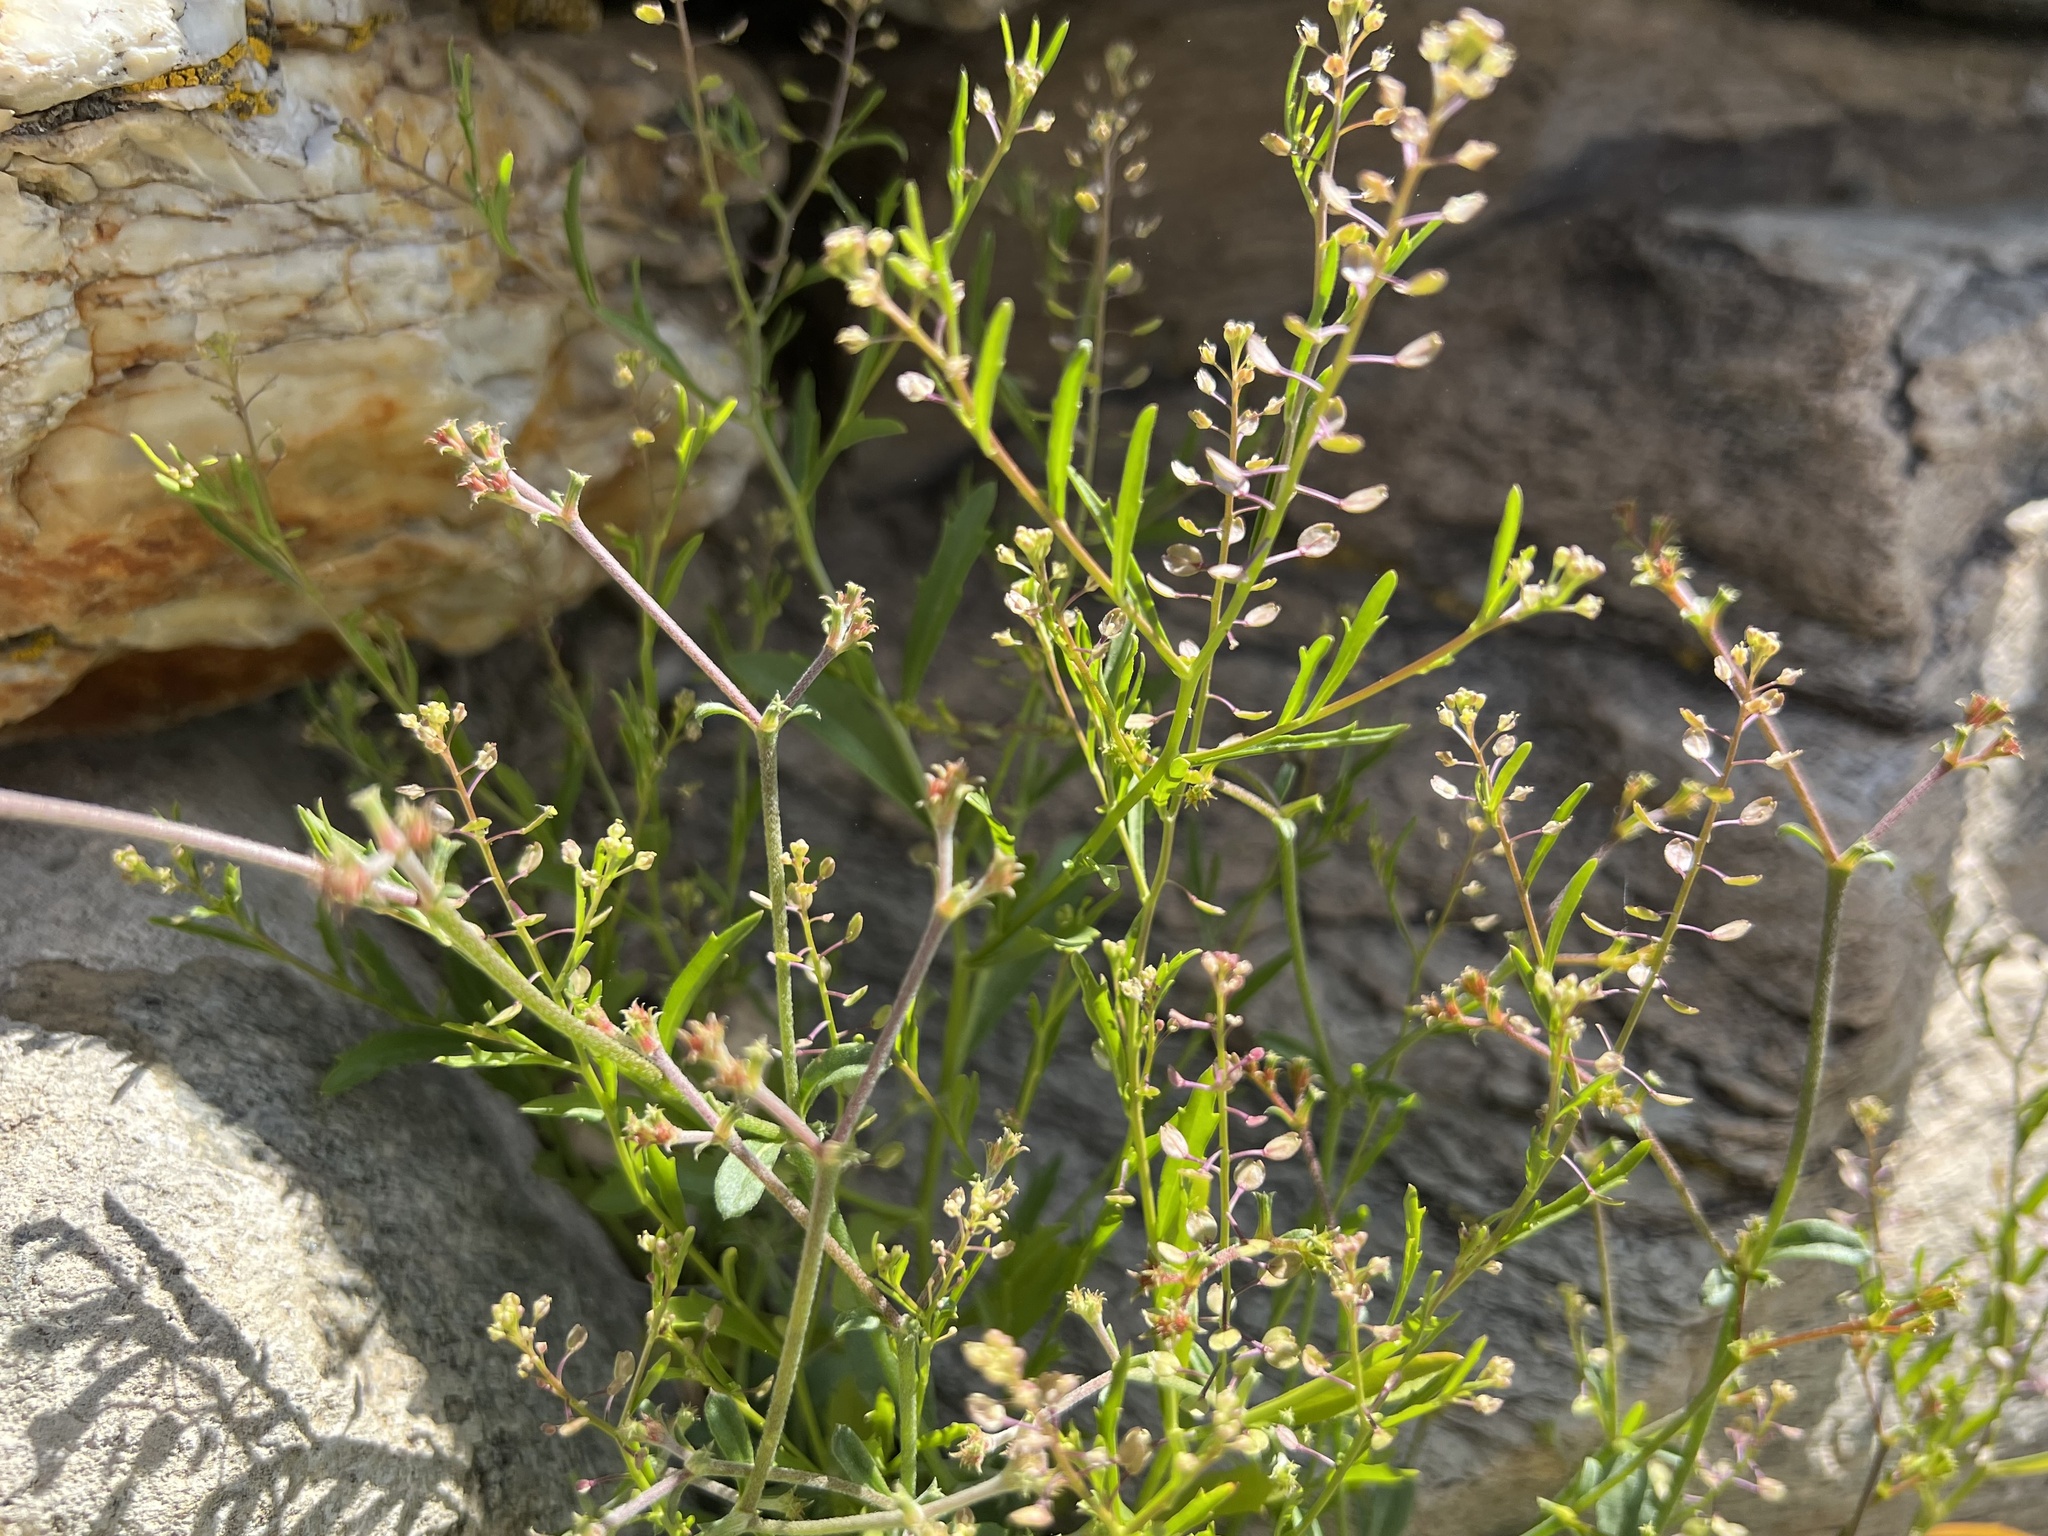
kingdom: Plantae
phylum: Tracheophyta
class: Magnoliopsida
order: Brassicales
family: Brassicaceae
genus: Lepidium
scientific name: Lepidium lasiocarpum
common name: Hairy-pod pepperwort
